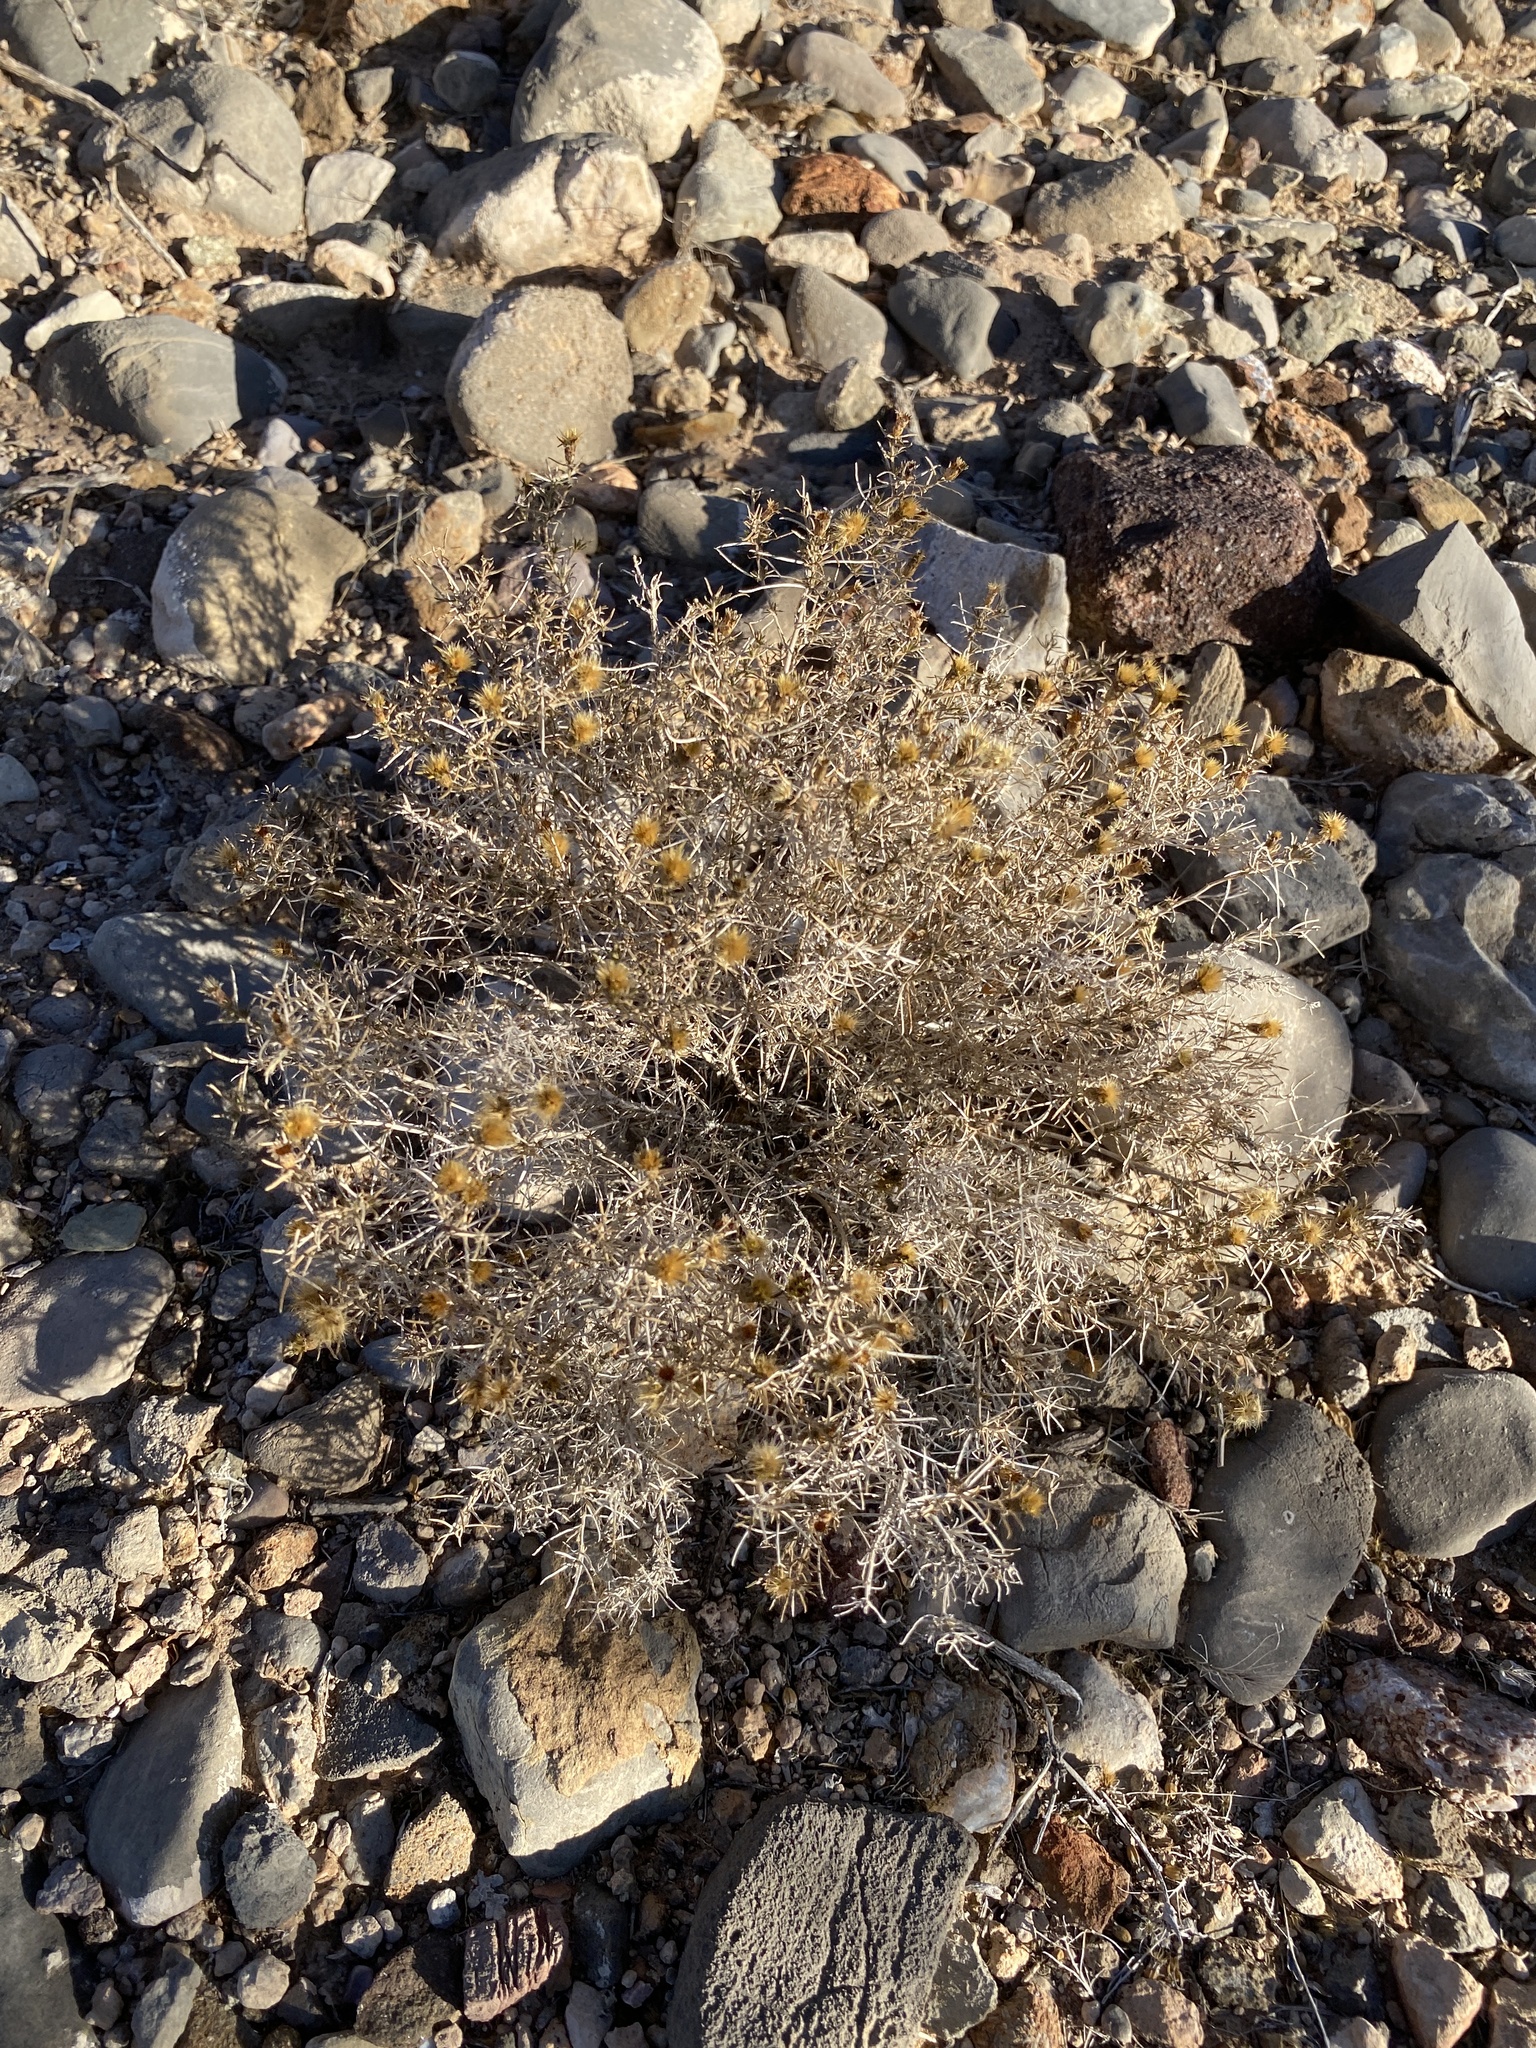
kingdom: Plantae
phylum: Tracheophyta
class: Magnoliopsida
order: Asterales
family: Asteraceae
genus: Thymophylla
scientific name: Thymophylla acerosa
